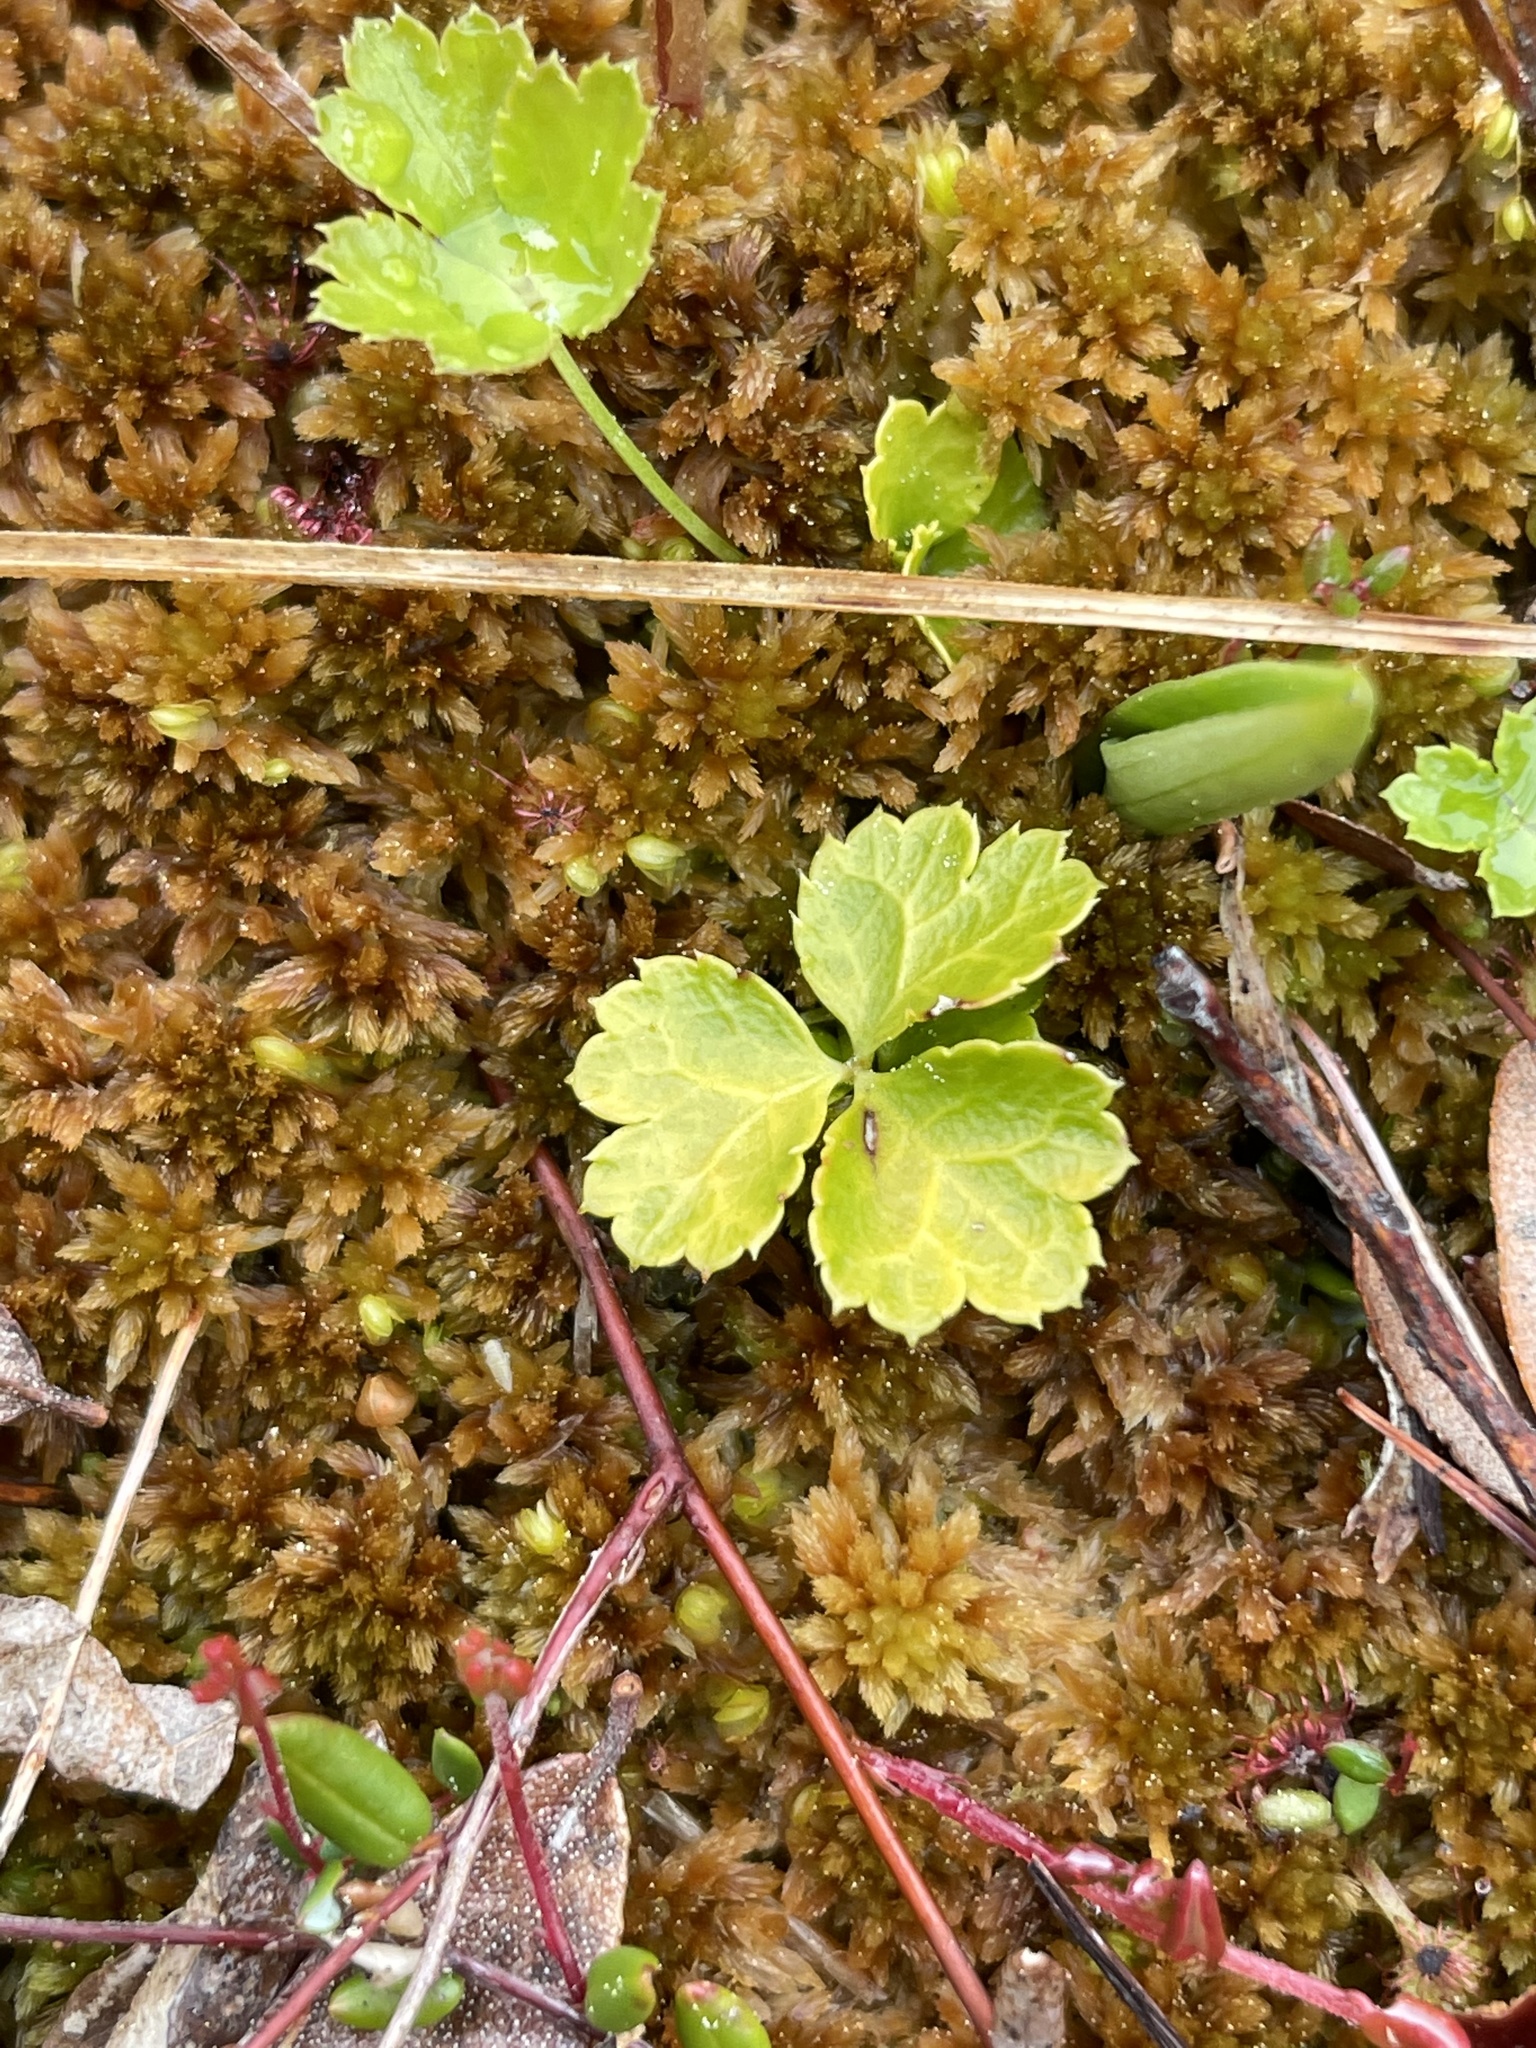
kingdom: Plantae
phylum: Tracheophyta
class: Magnoliopsida
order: Ranunculales
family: Ranunculaceae
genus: Coptis
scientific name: Coptis trifolia
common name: Canker-root
